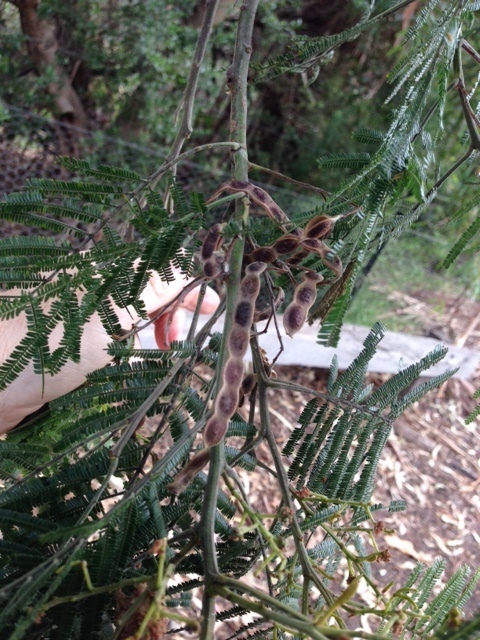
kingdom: Plantae
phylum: Tracheophyta
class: Magnoliopsida
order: Fabales
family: Fabaceae
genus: Acacia
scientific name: Acacia mearnsii
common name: Black wattle
